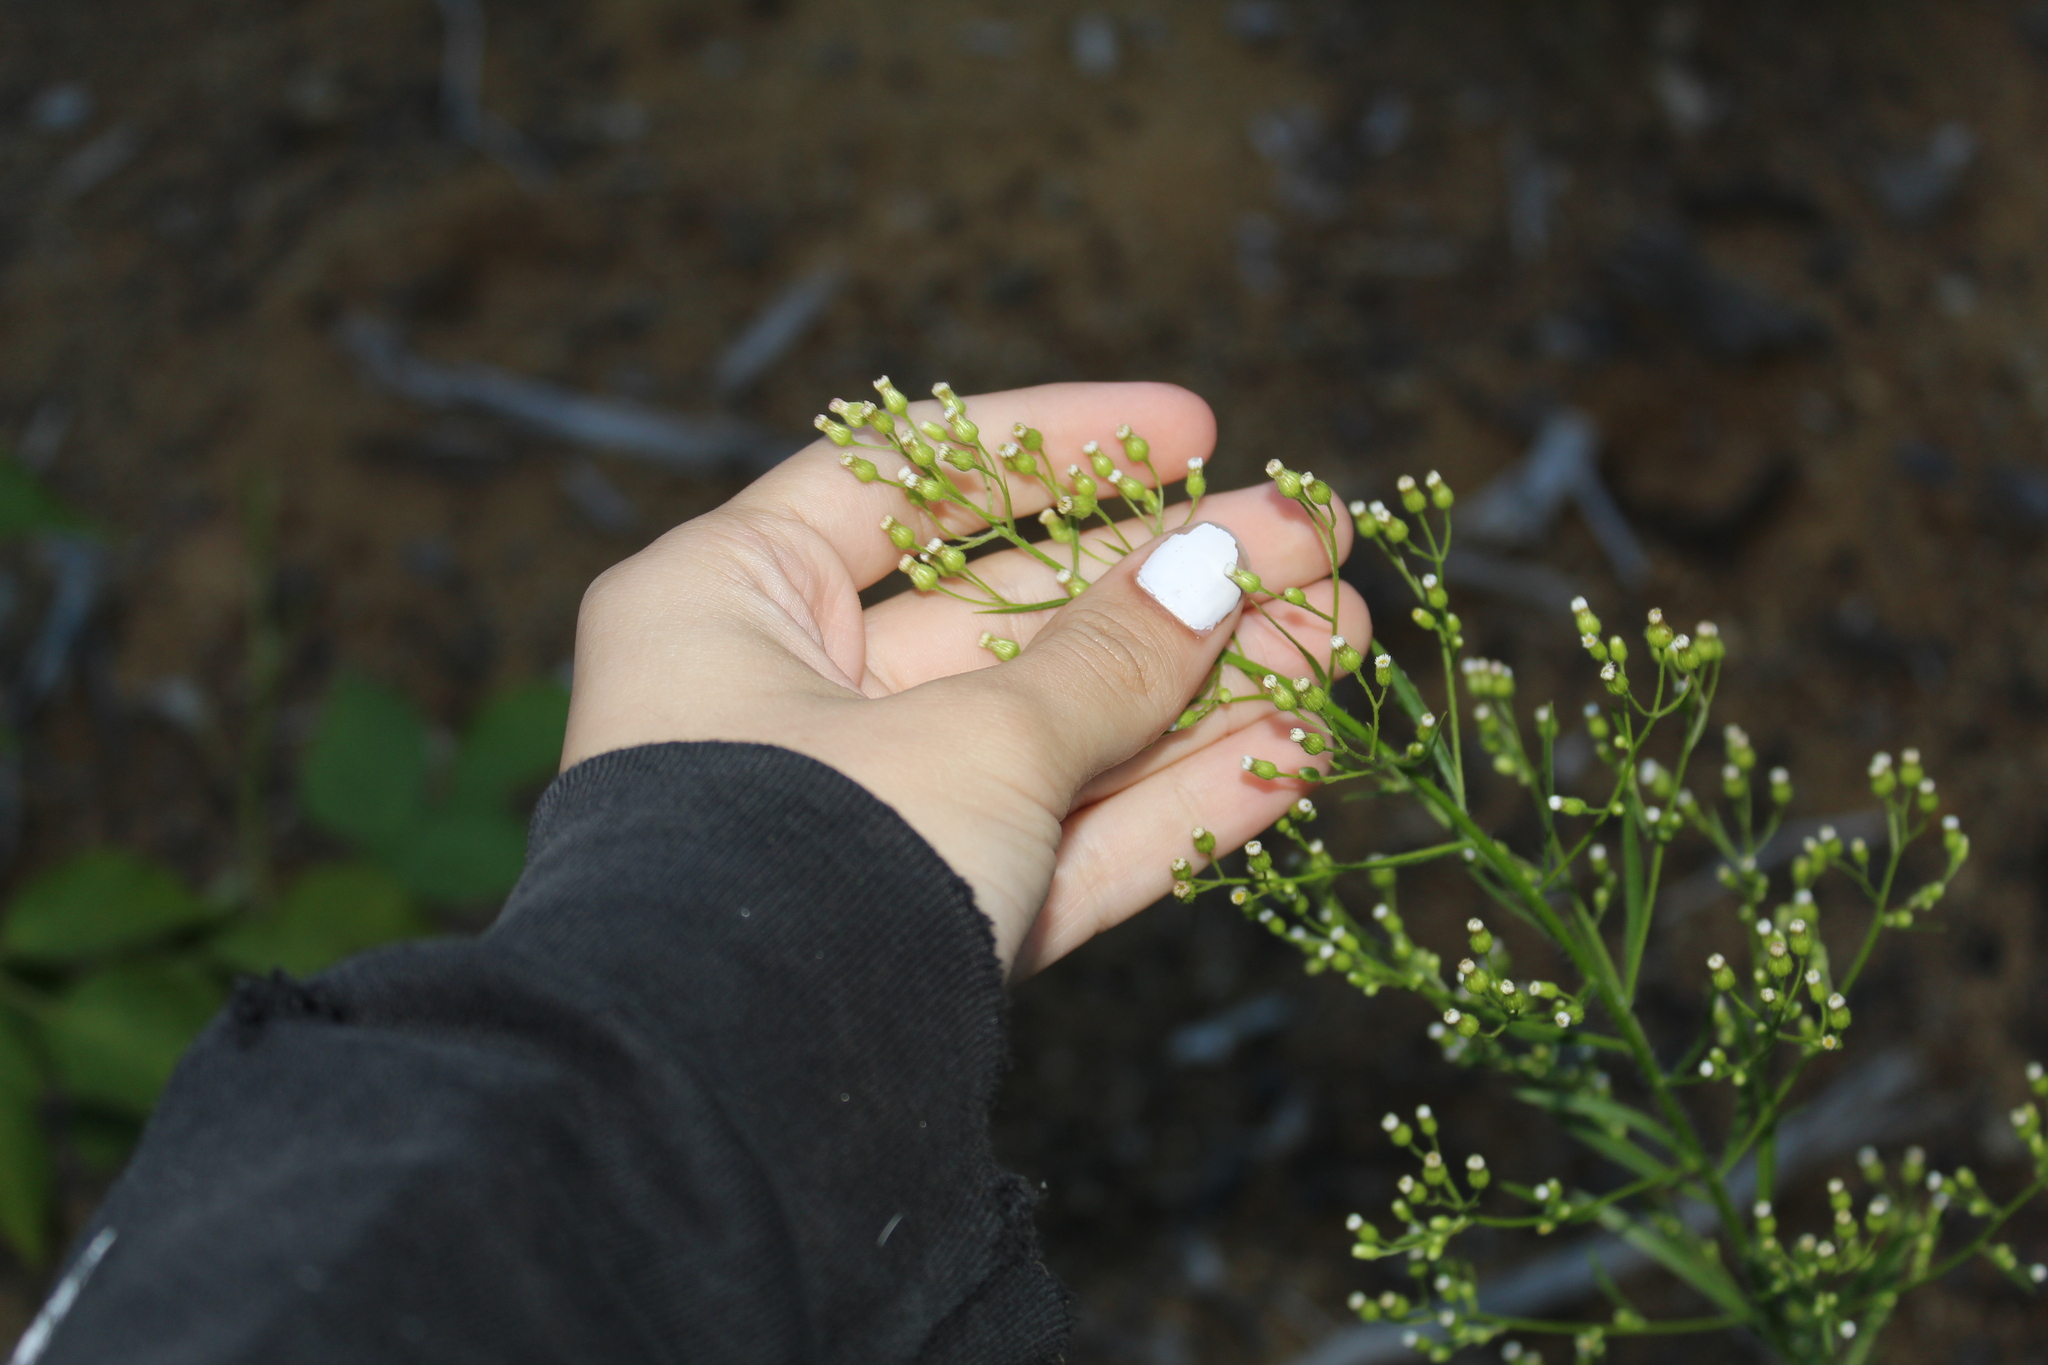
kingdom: Plantae
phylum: Tracheophyta
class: Magnoliopsida
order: Asterales
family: Asteraceae
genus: Erigeron
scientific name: Erigeron canadensis
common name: Canadian fleabane
